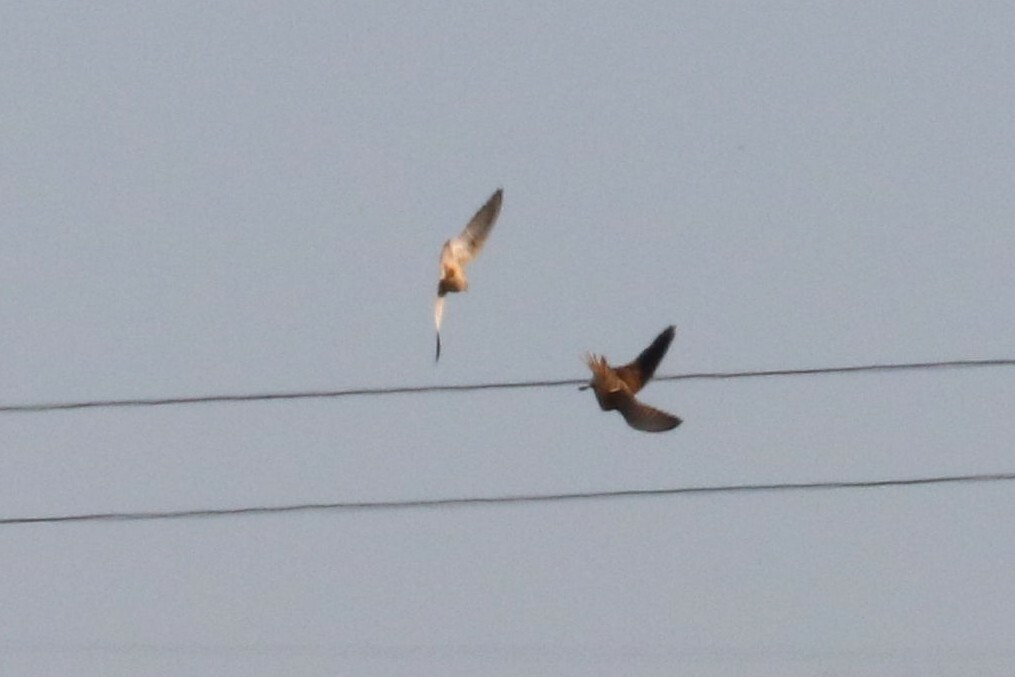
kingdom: Animalia
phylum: Chordata
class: Aves
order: Falconiformes
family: Falconidae
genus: Falco
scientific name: Falco tinnunculus
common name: Common kestrel
